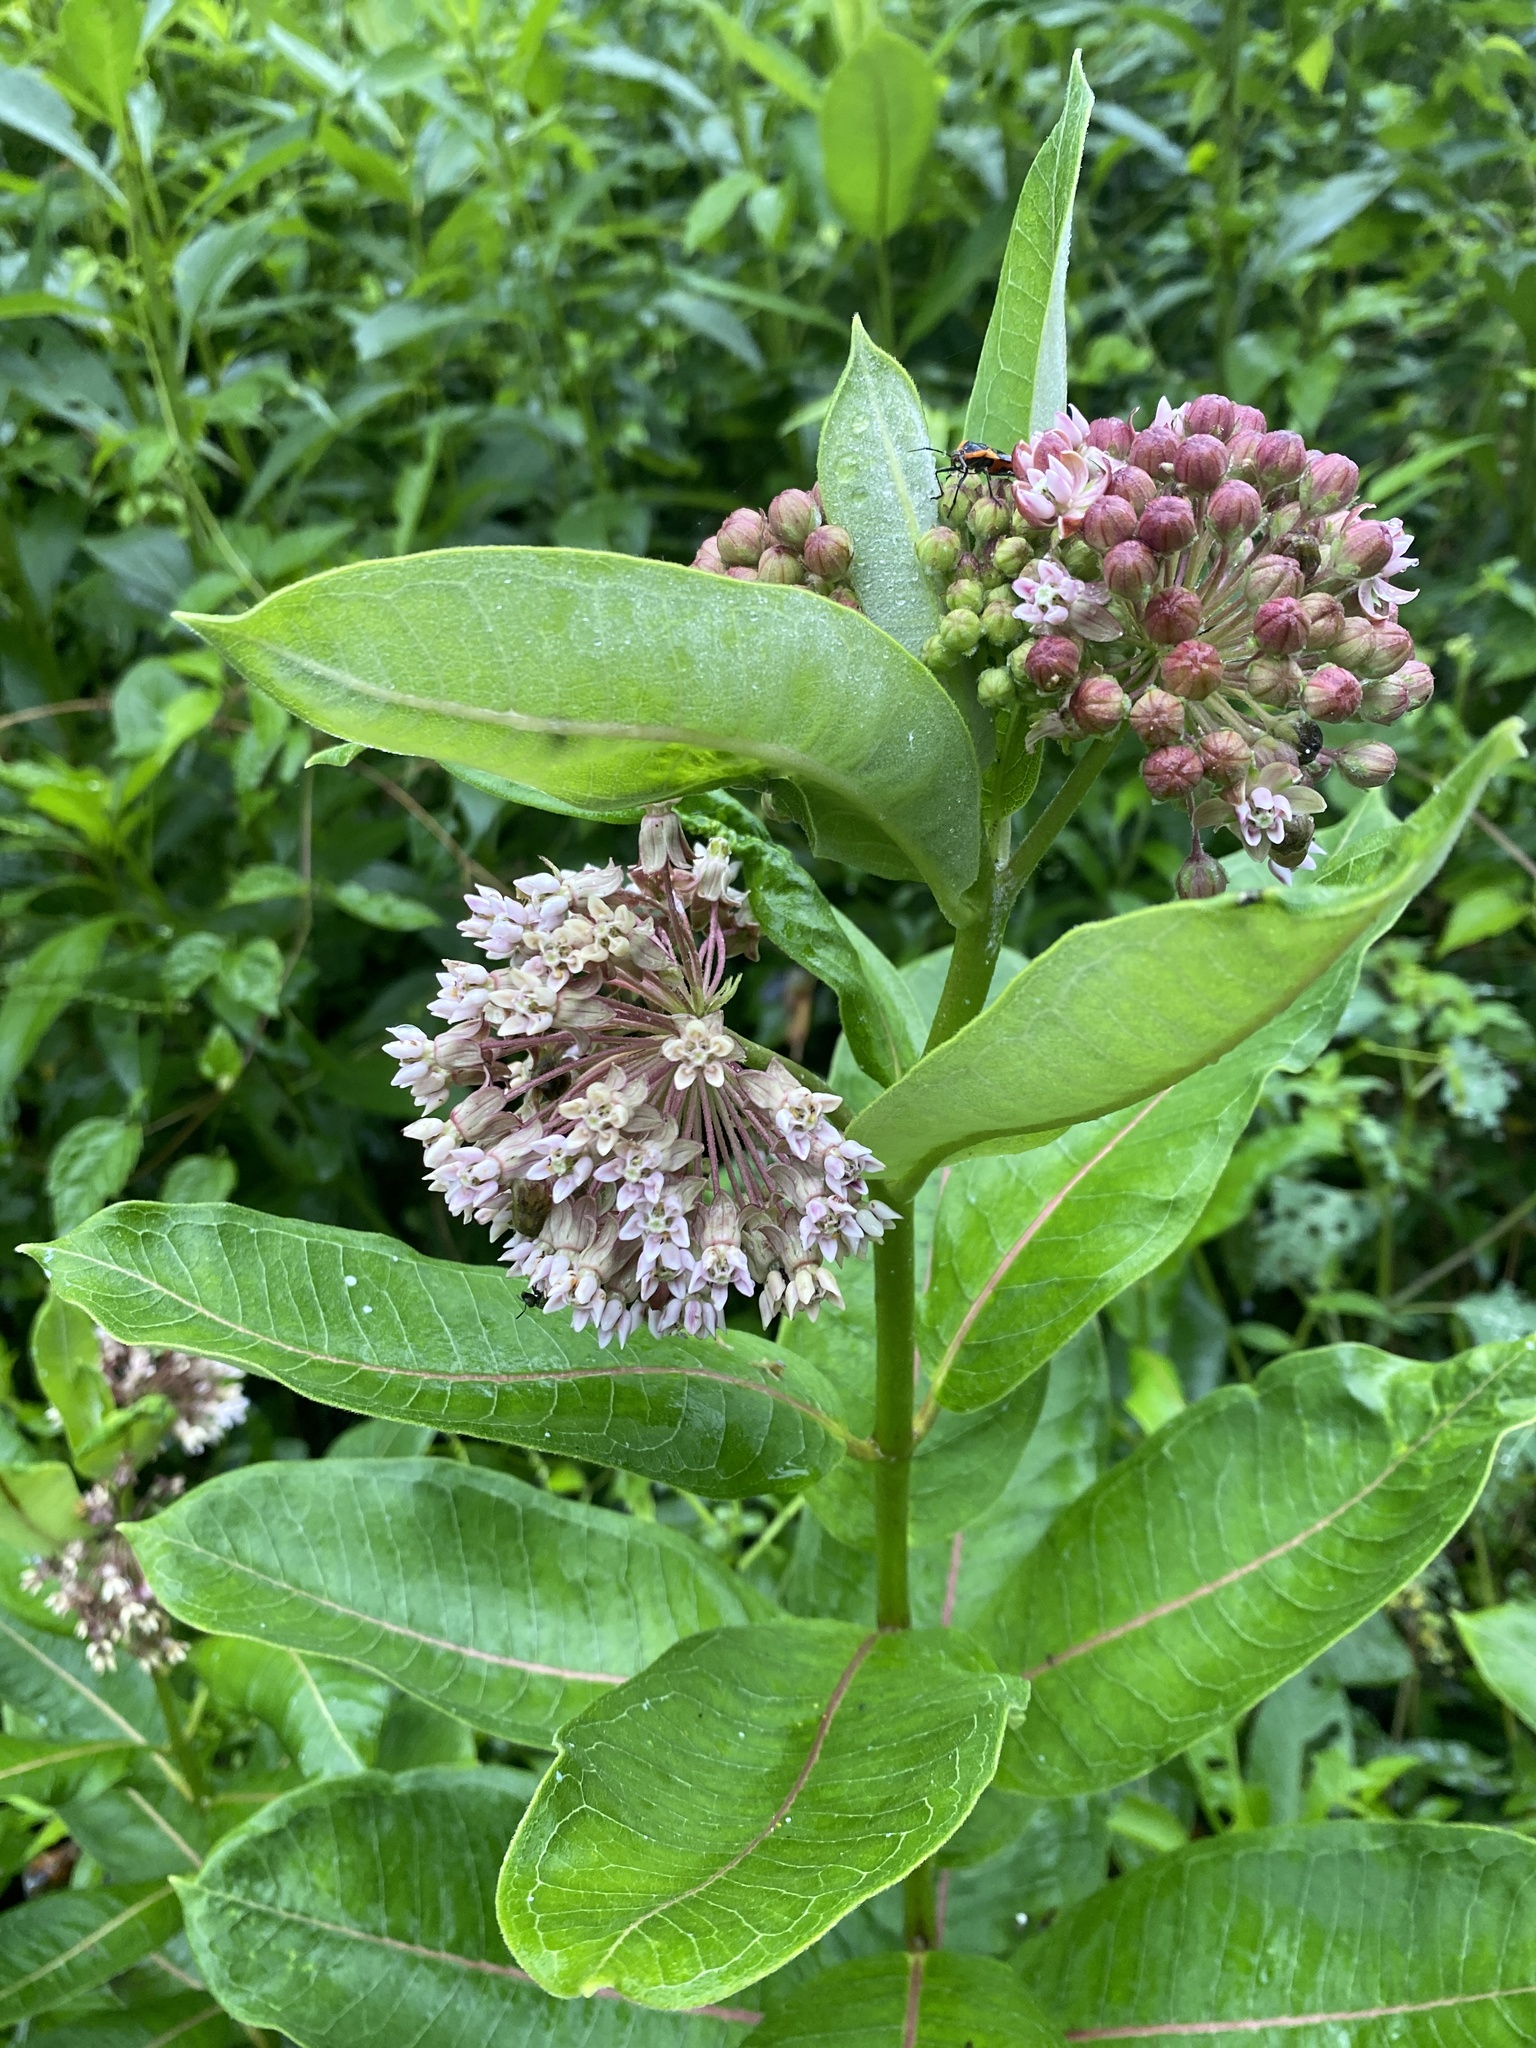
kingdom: Plantae
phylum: Tracheophyta
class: Magnoliopsida
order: Gentianales
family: Apocynaceae
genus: Asclepias
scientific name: Asclepias syriaca
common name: Common milkweed
